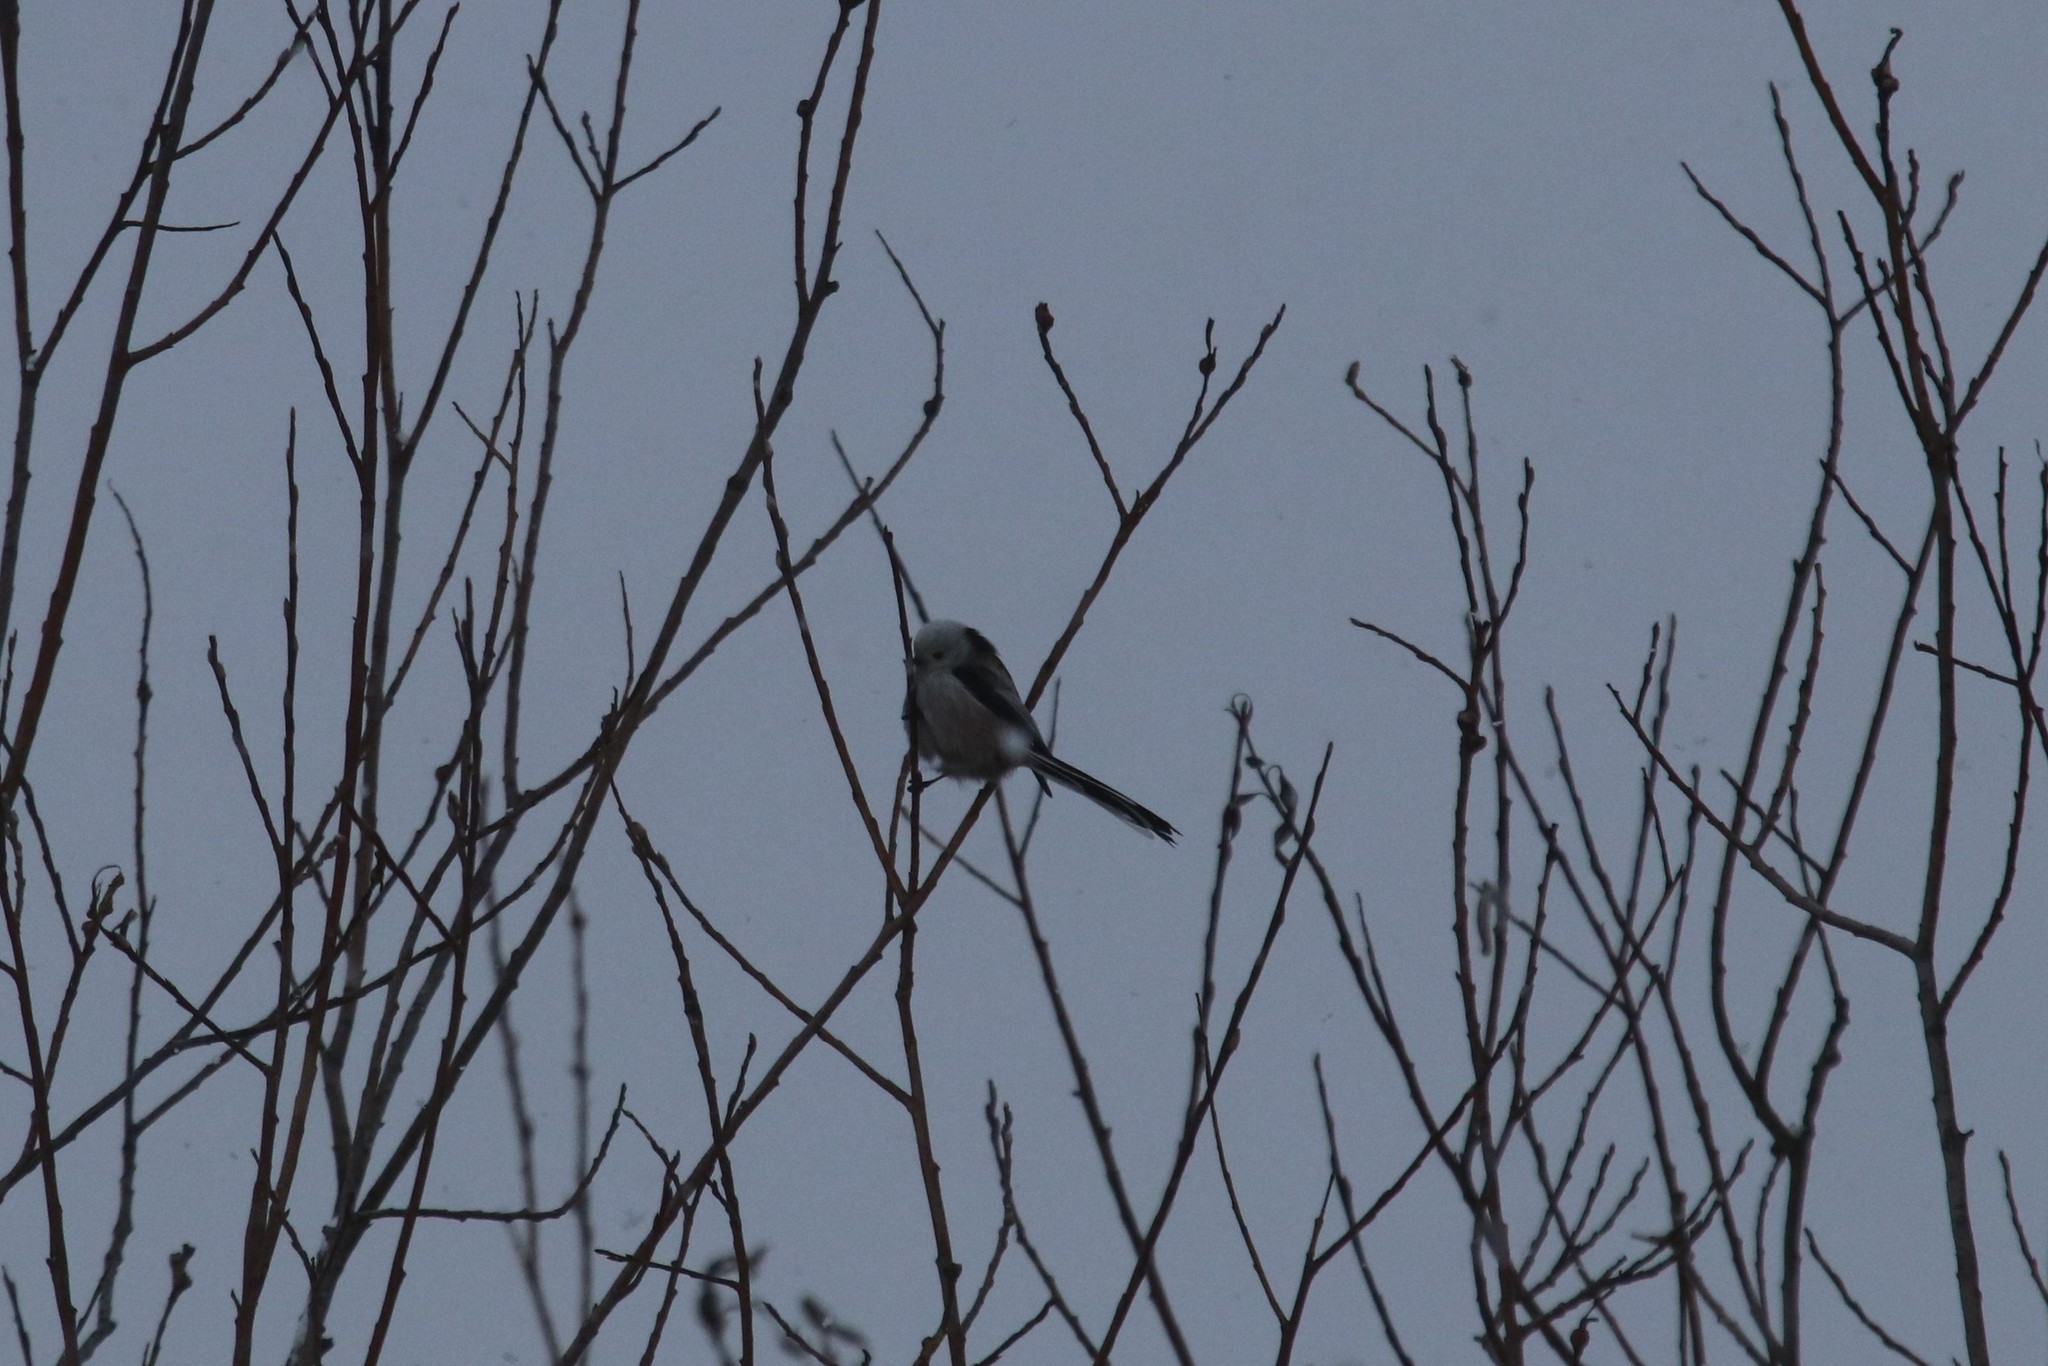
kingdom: Animalia
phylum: Chordata
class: Aves
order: Passeriformes
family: Aegithalidae
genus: Aegithalos
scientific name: Aegithalos caudatus
